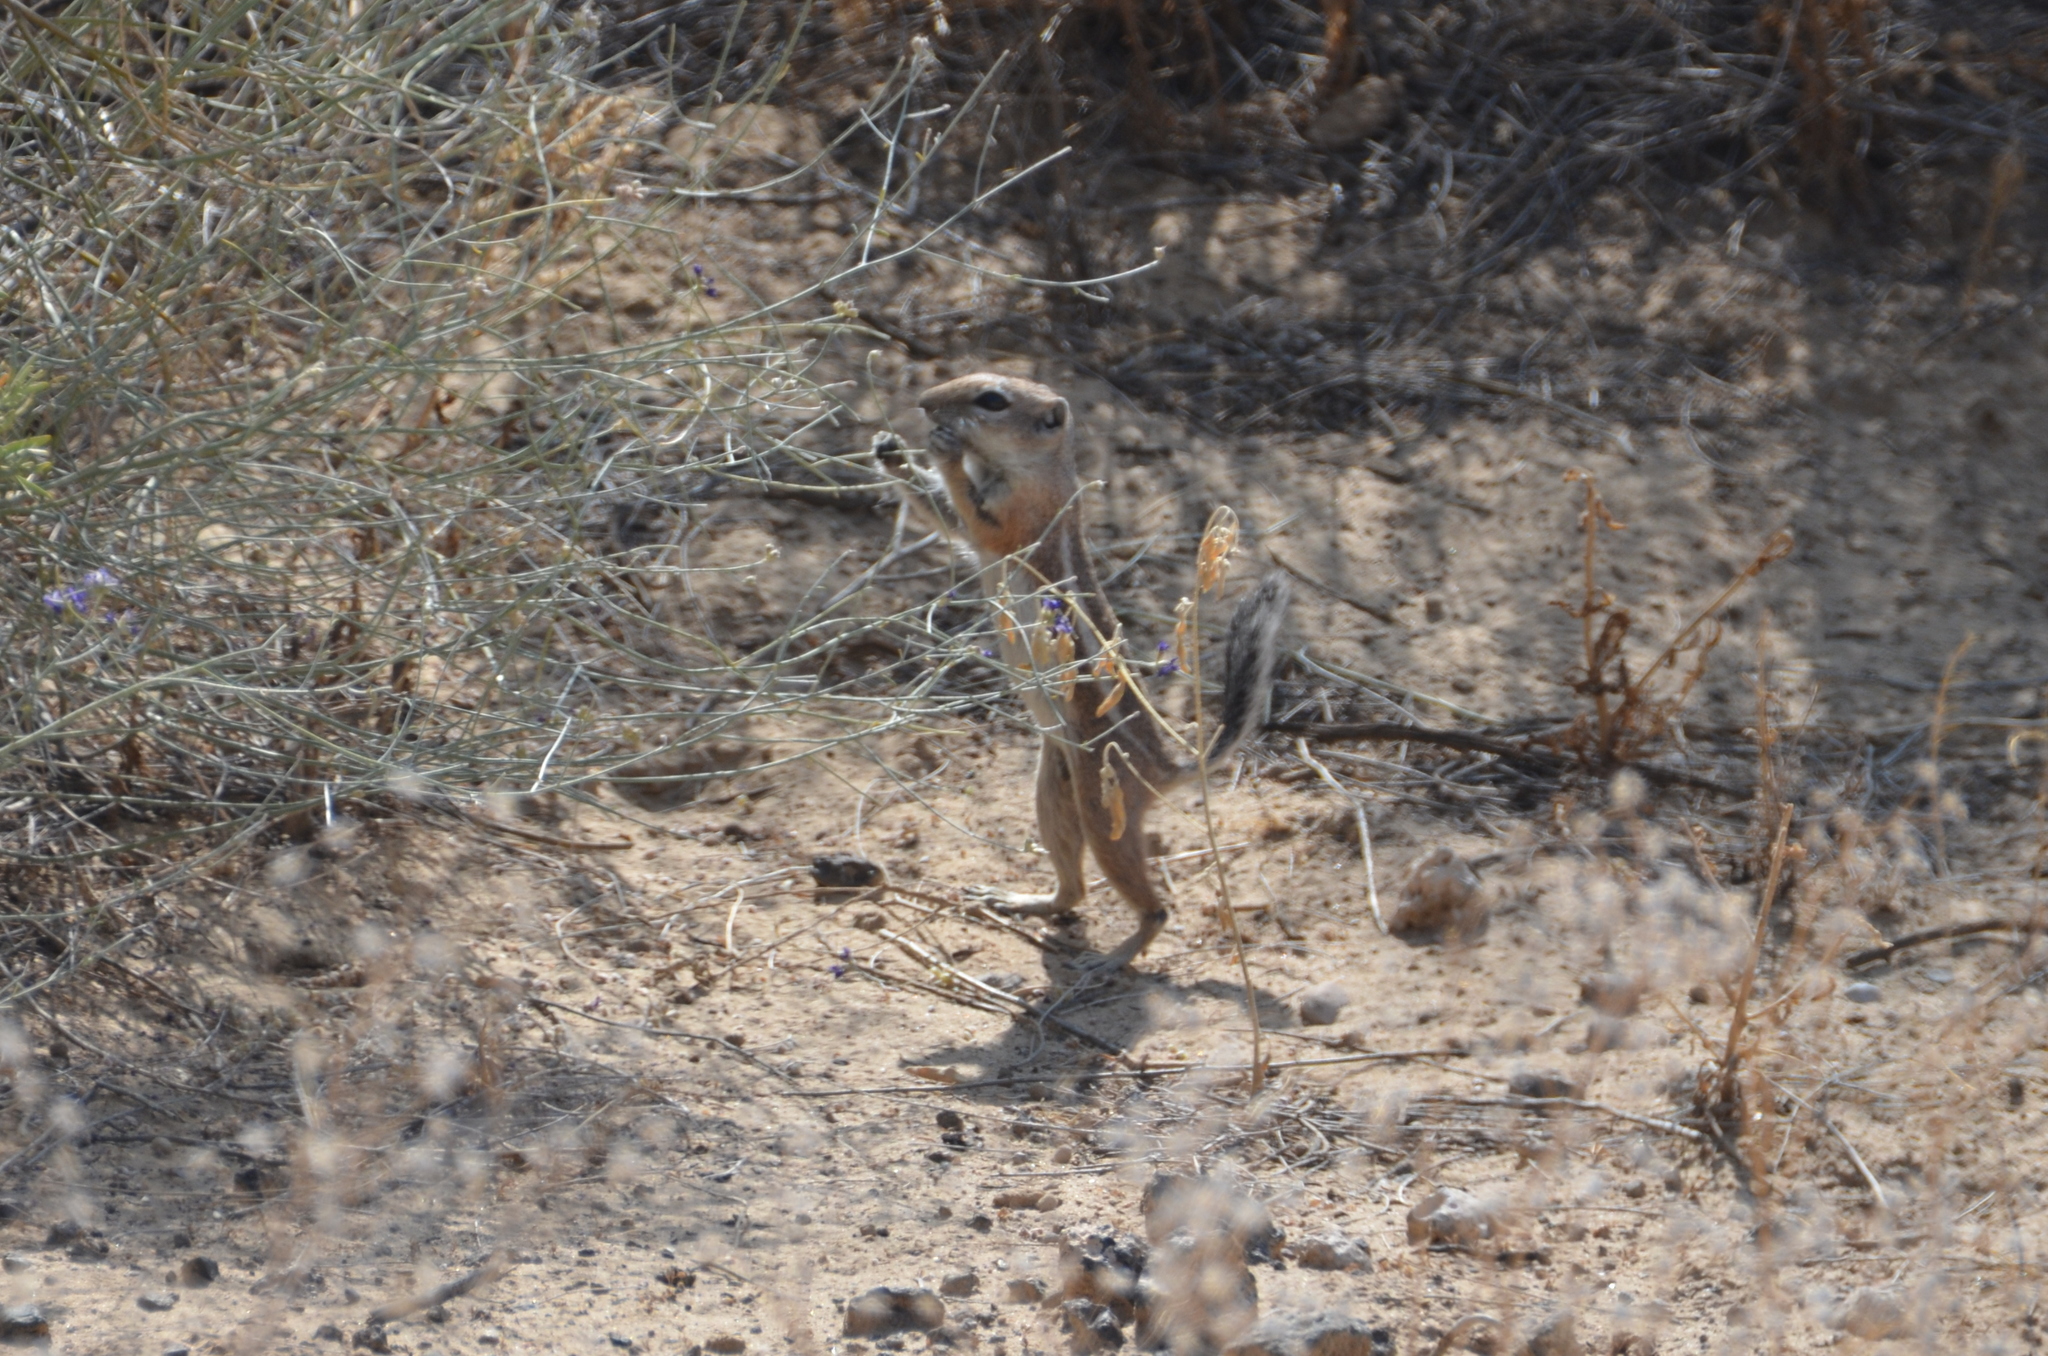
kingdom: Animalia
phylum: Chordata
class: Mammalia
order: Rodentia
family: Sciuridae
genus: Ammospermophilus
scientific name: Ammospermophilus leucurus
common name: White-tailed antelope squirrel
